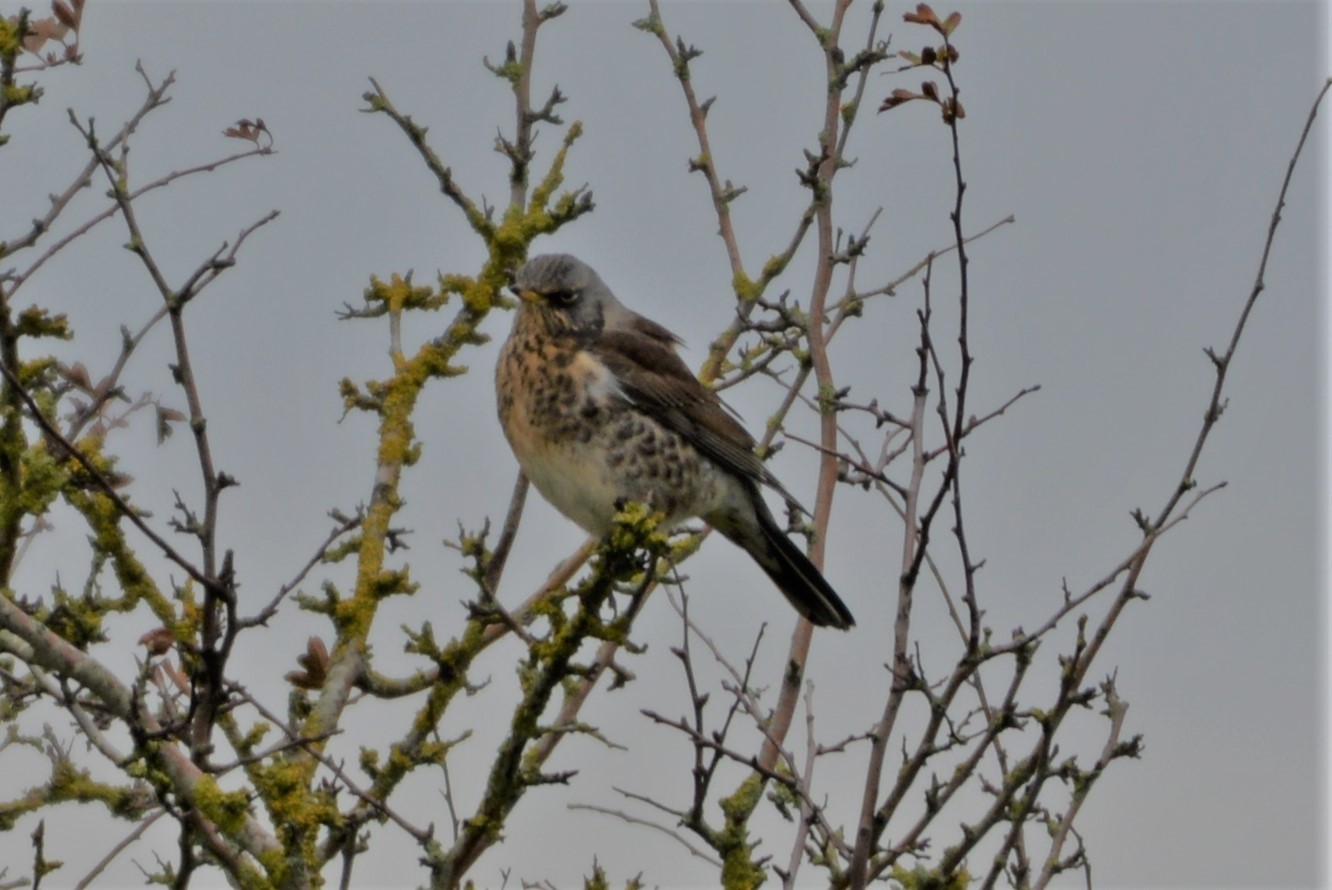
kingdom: Animalia
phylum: Chordata
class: Aves
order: Passeriformes
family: Turdidae
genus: Turdus
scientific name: Turdus pilaris
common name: Fieldfare
